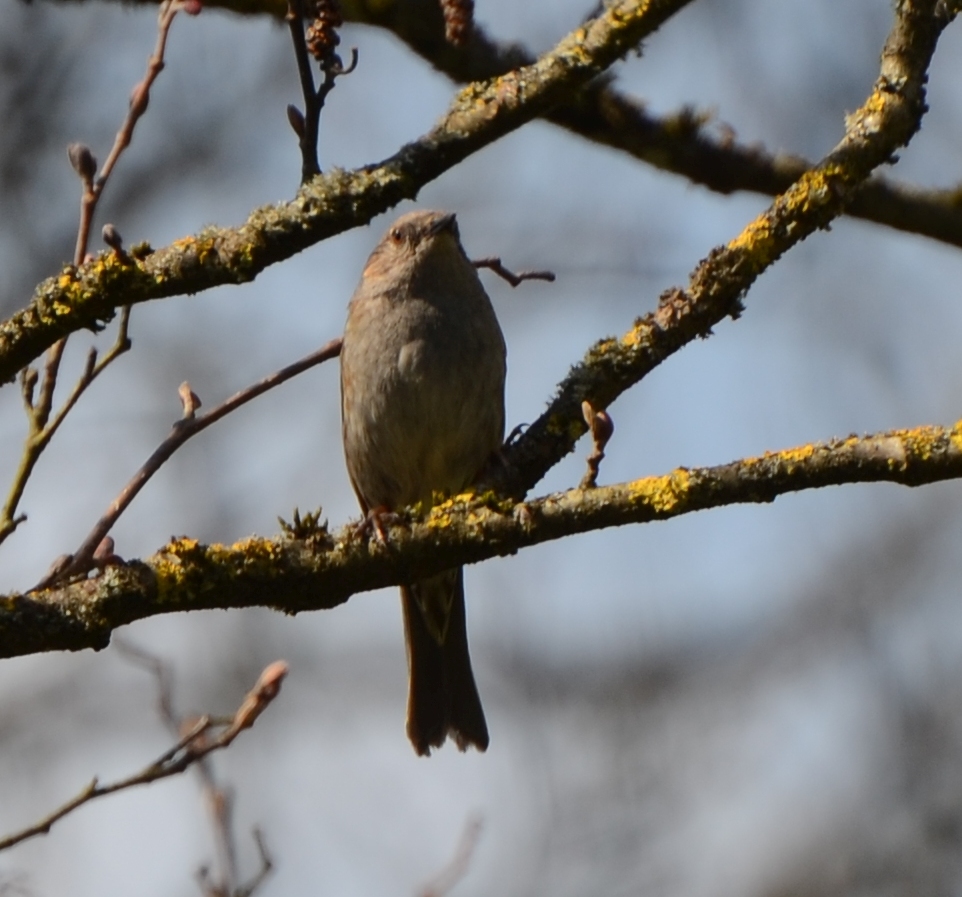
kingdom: Animalia
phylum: Chordata
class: Aves
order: Passeriformes
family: Prunellidae
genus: Prunella
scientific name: Prunella modularis
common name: Dunnock
